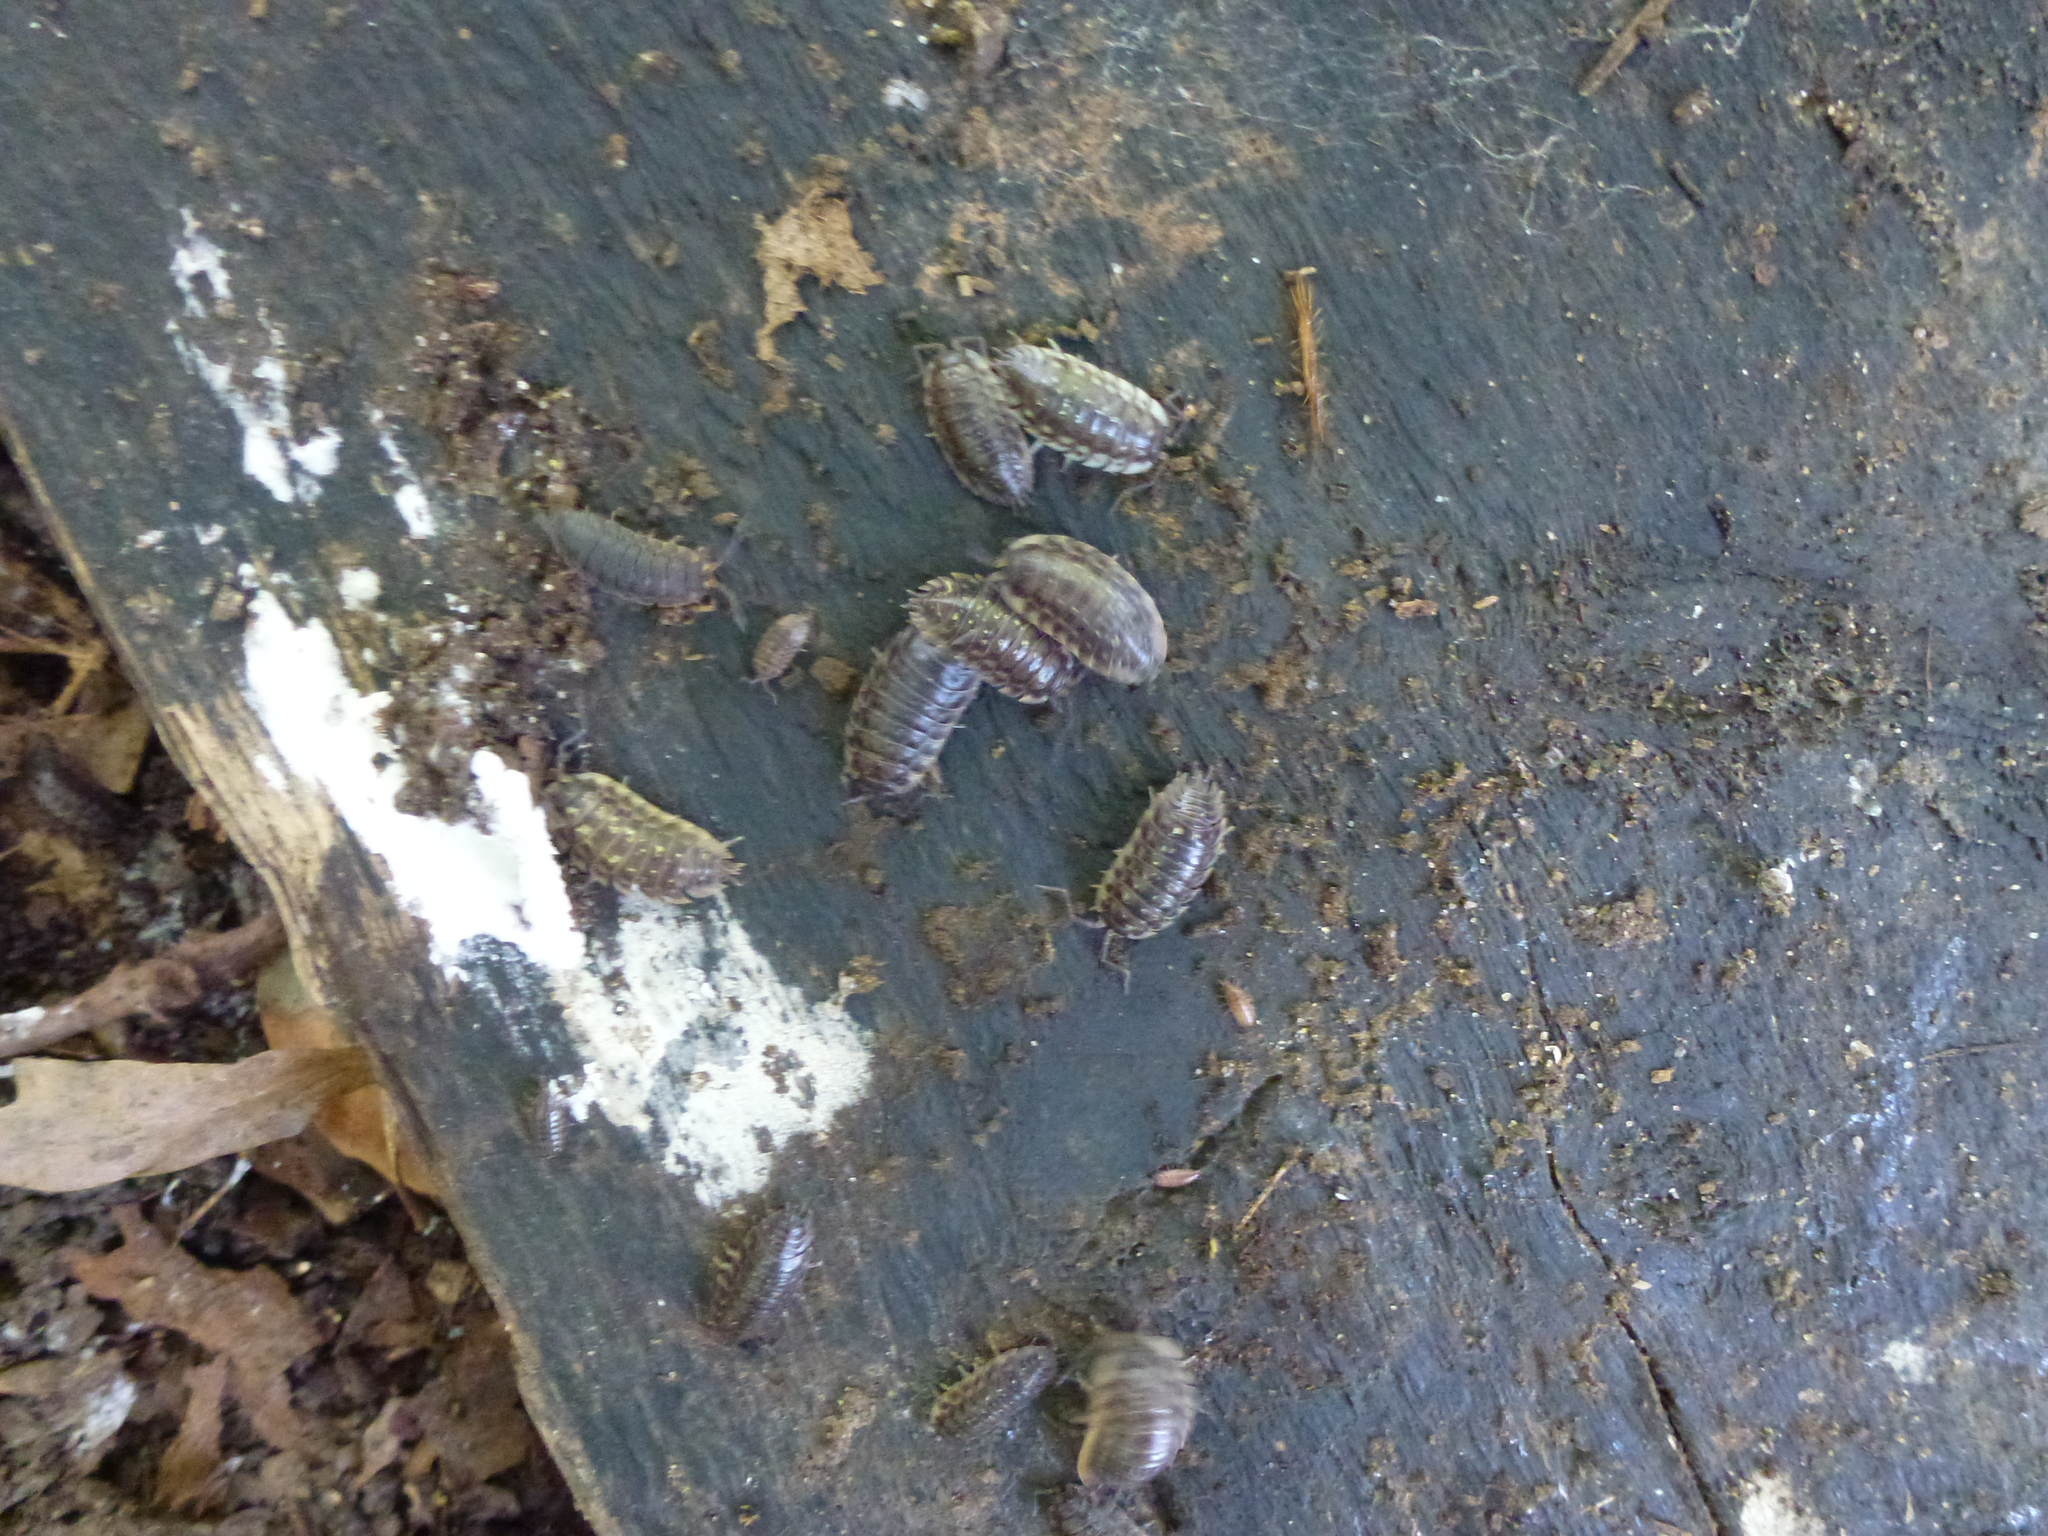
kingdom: Animalia
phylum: Arthropoda
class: Malacostraca
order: Isopoda
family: Oniscidae
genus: Oniscus
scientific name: Oniscus asellus
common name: Common shiny woodlouse
